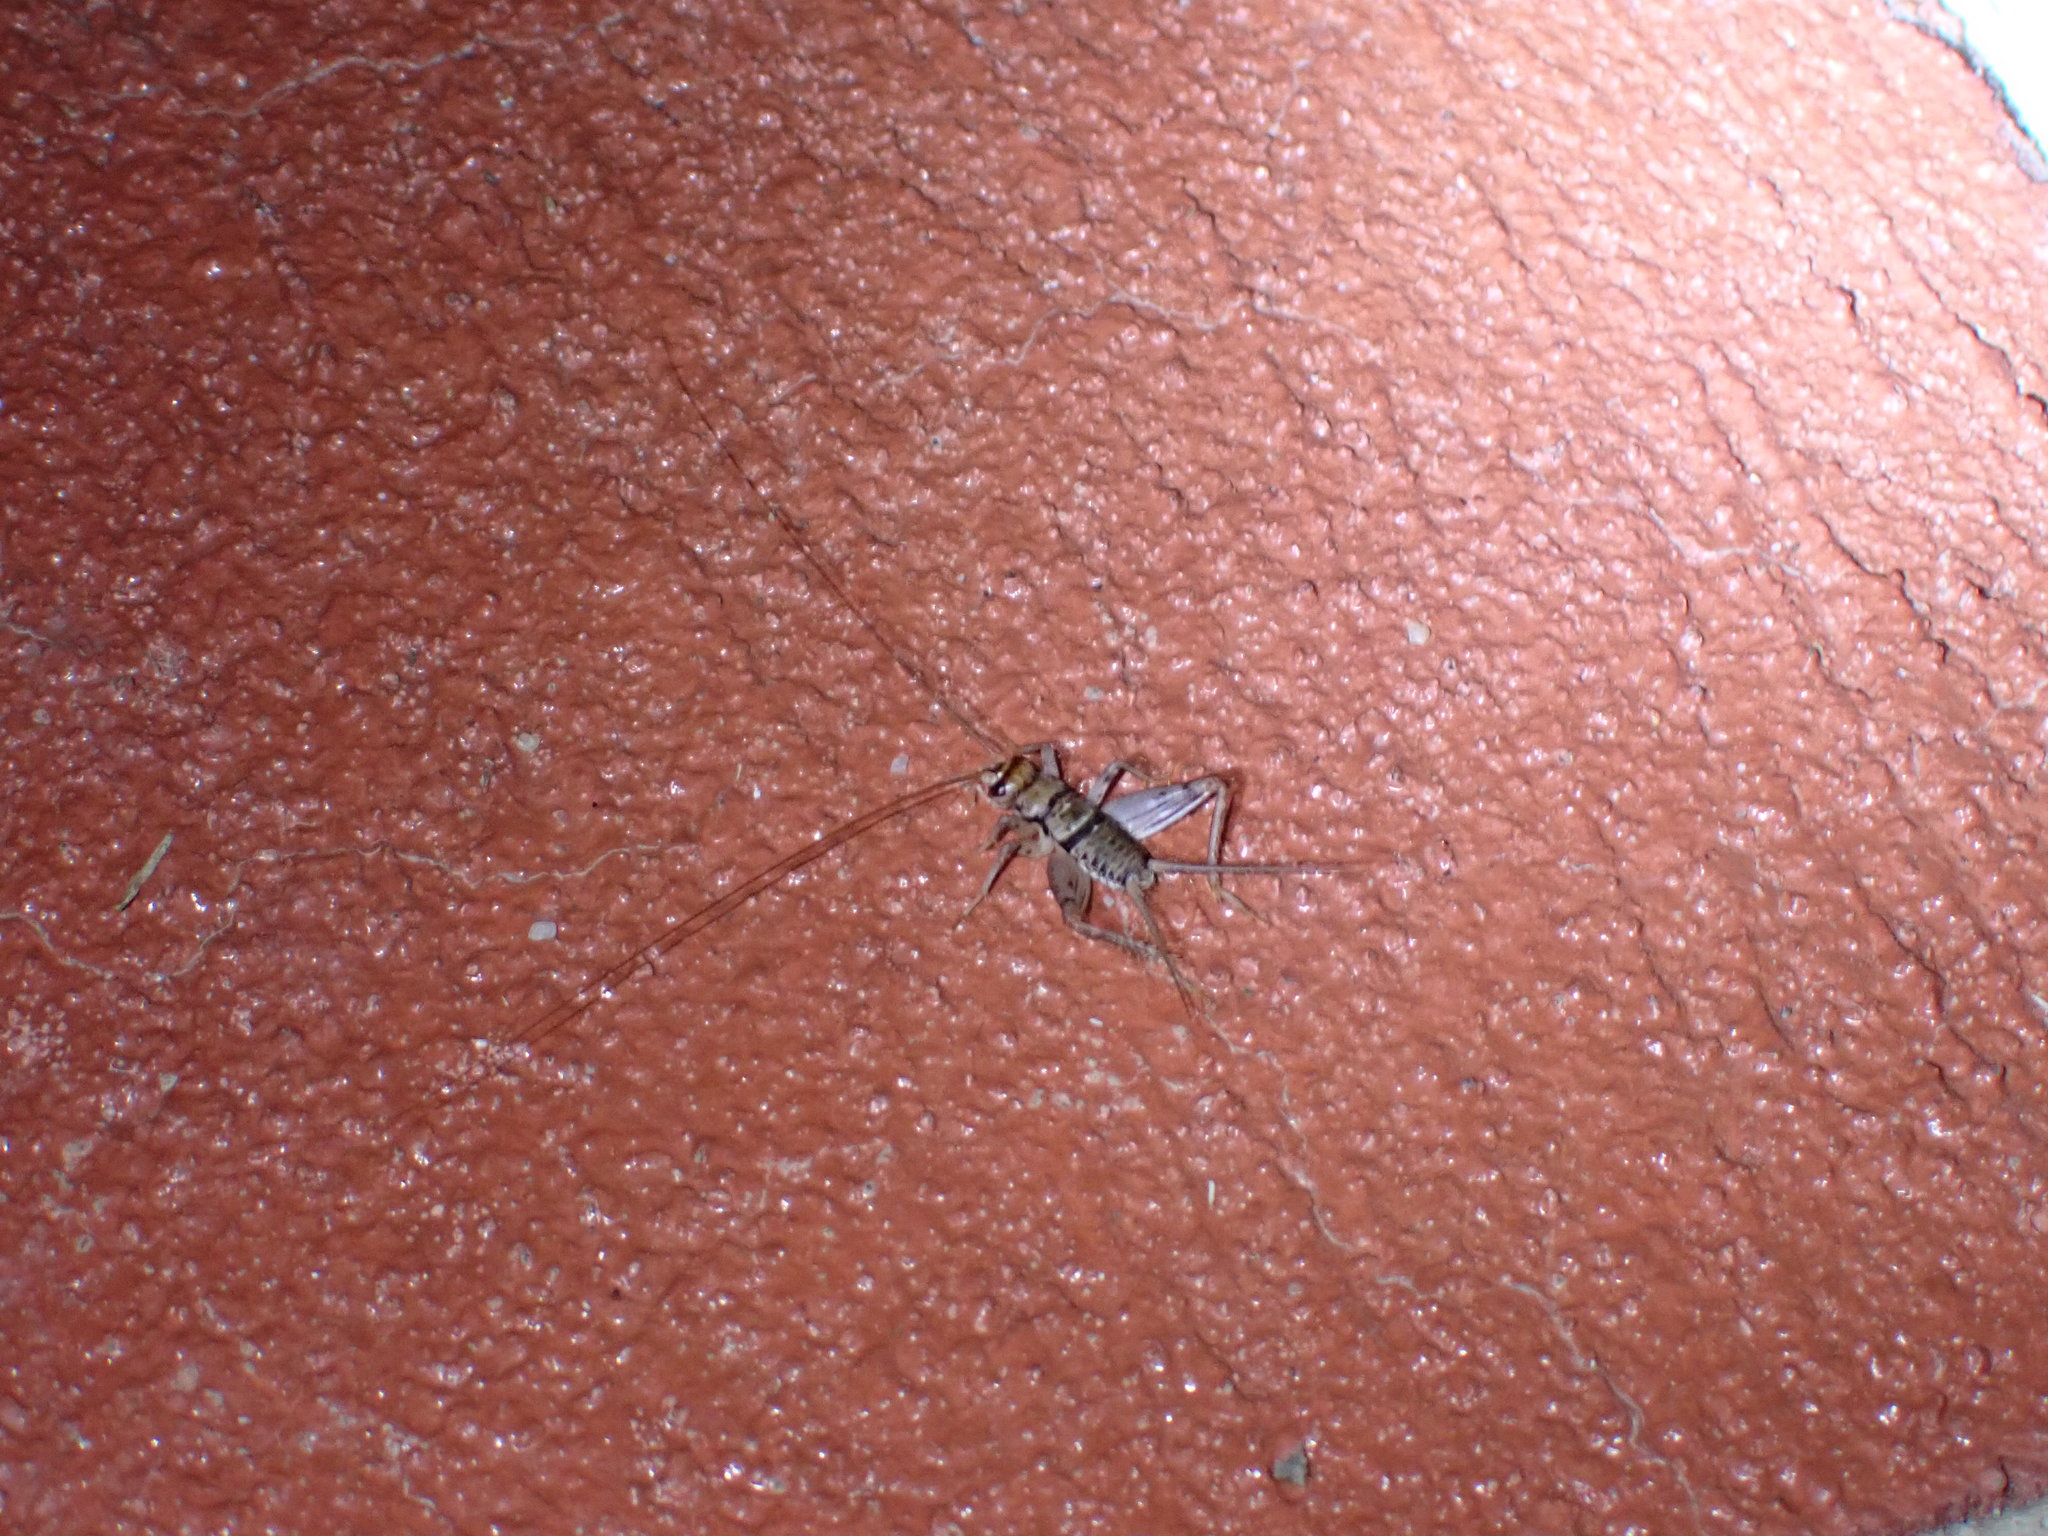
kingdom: Animalia
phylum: Arthropoda
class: Insecta
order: Orthoptera
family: Gryllidae
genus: Gryllodes
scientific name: Gryllodes sigillatus
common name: Tropical house cricket
